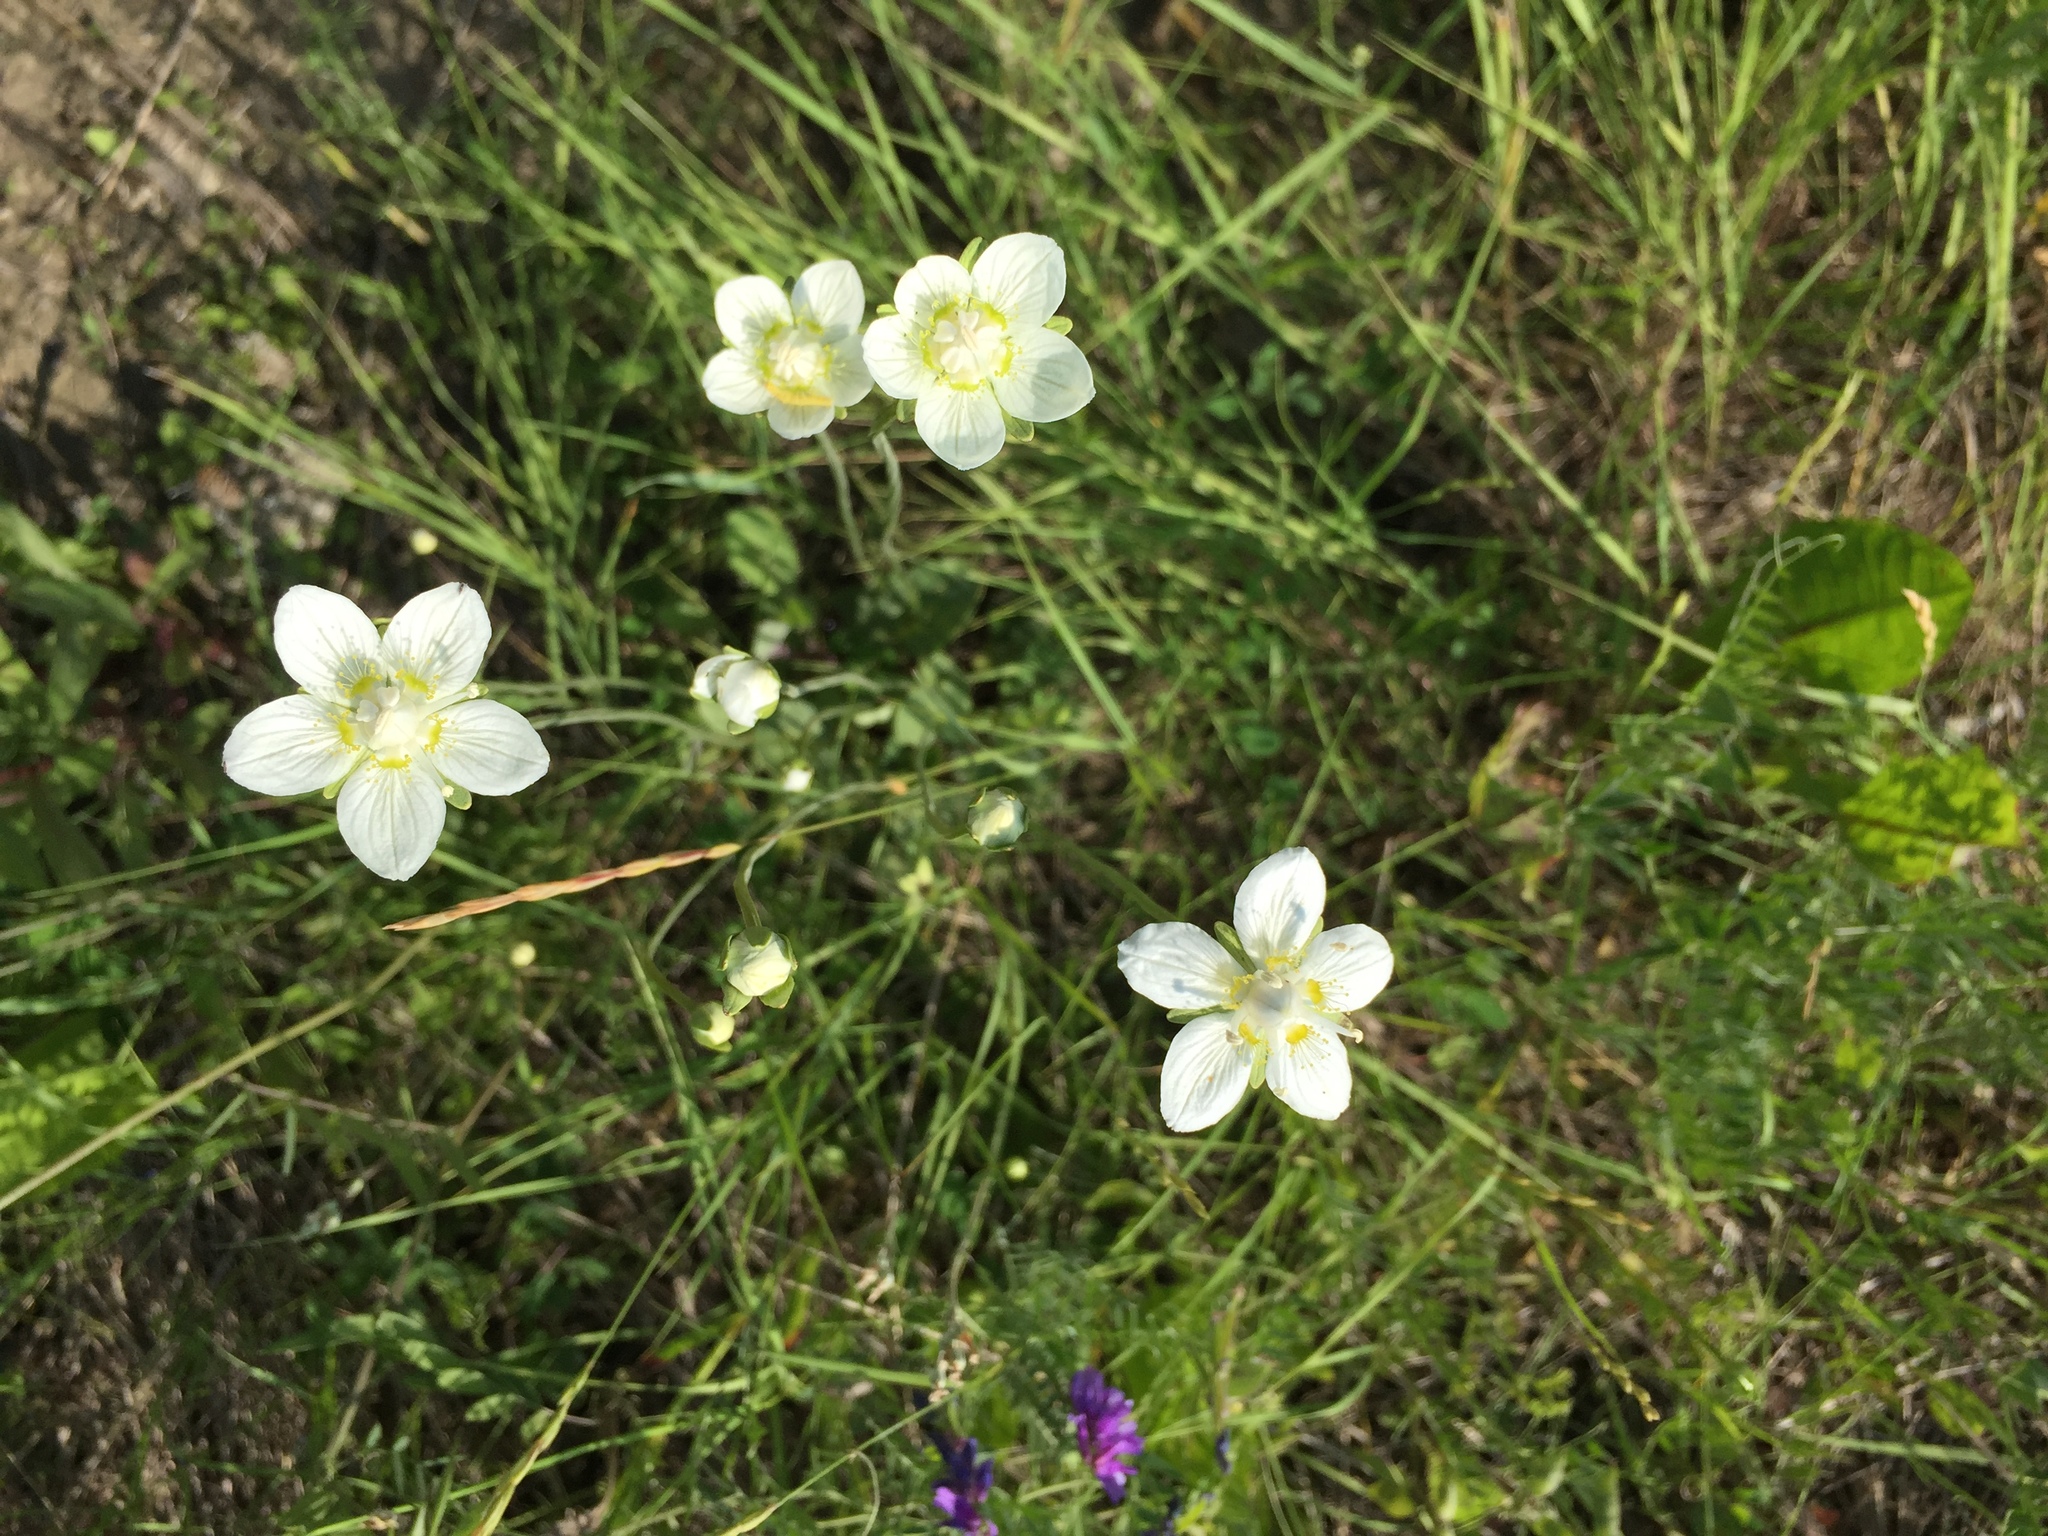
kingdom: Plantae
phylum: Tracheophyta
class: Magnoliopsida
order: Celastrales
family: Parnassiaceae
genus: Parnassia
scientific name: Parnassia palustris
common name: Grass-of-parnassus
